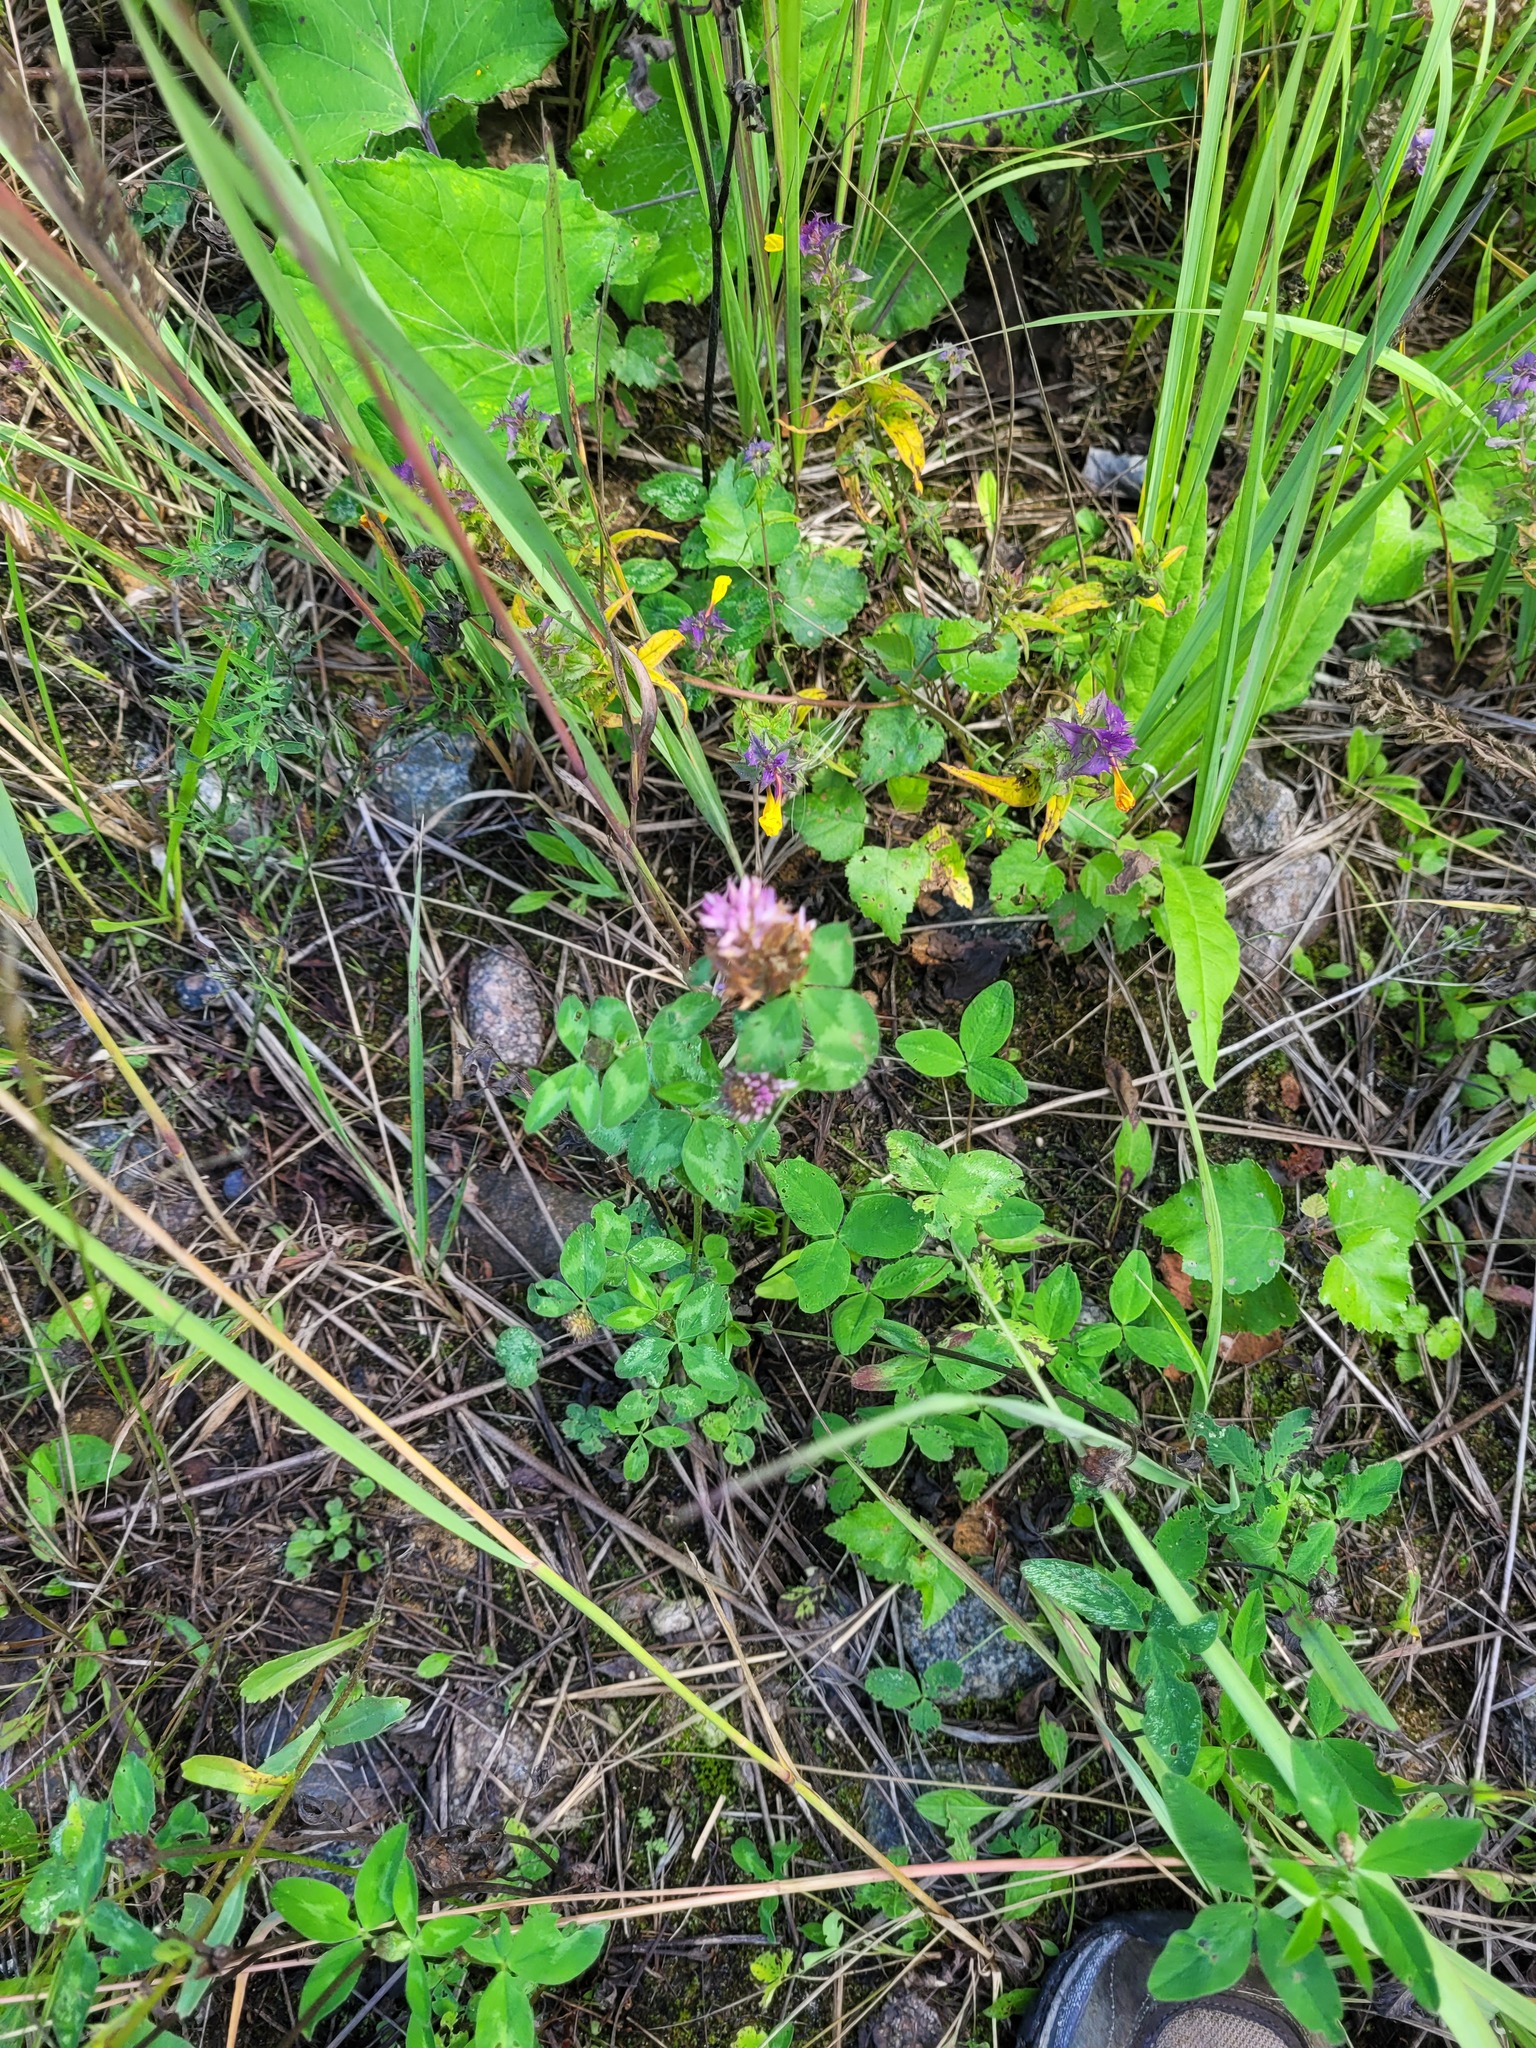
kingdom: Plantae
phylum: Tracheophyta
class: Magnoliopsida
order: Fabales
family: Fabaceae
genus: Trifolium
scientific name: Trifolium pratense
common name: Red clover
